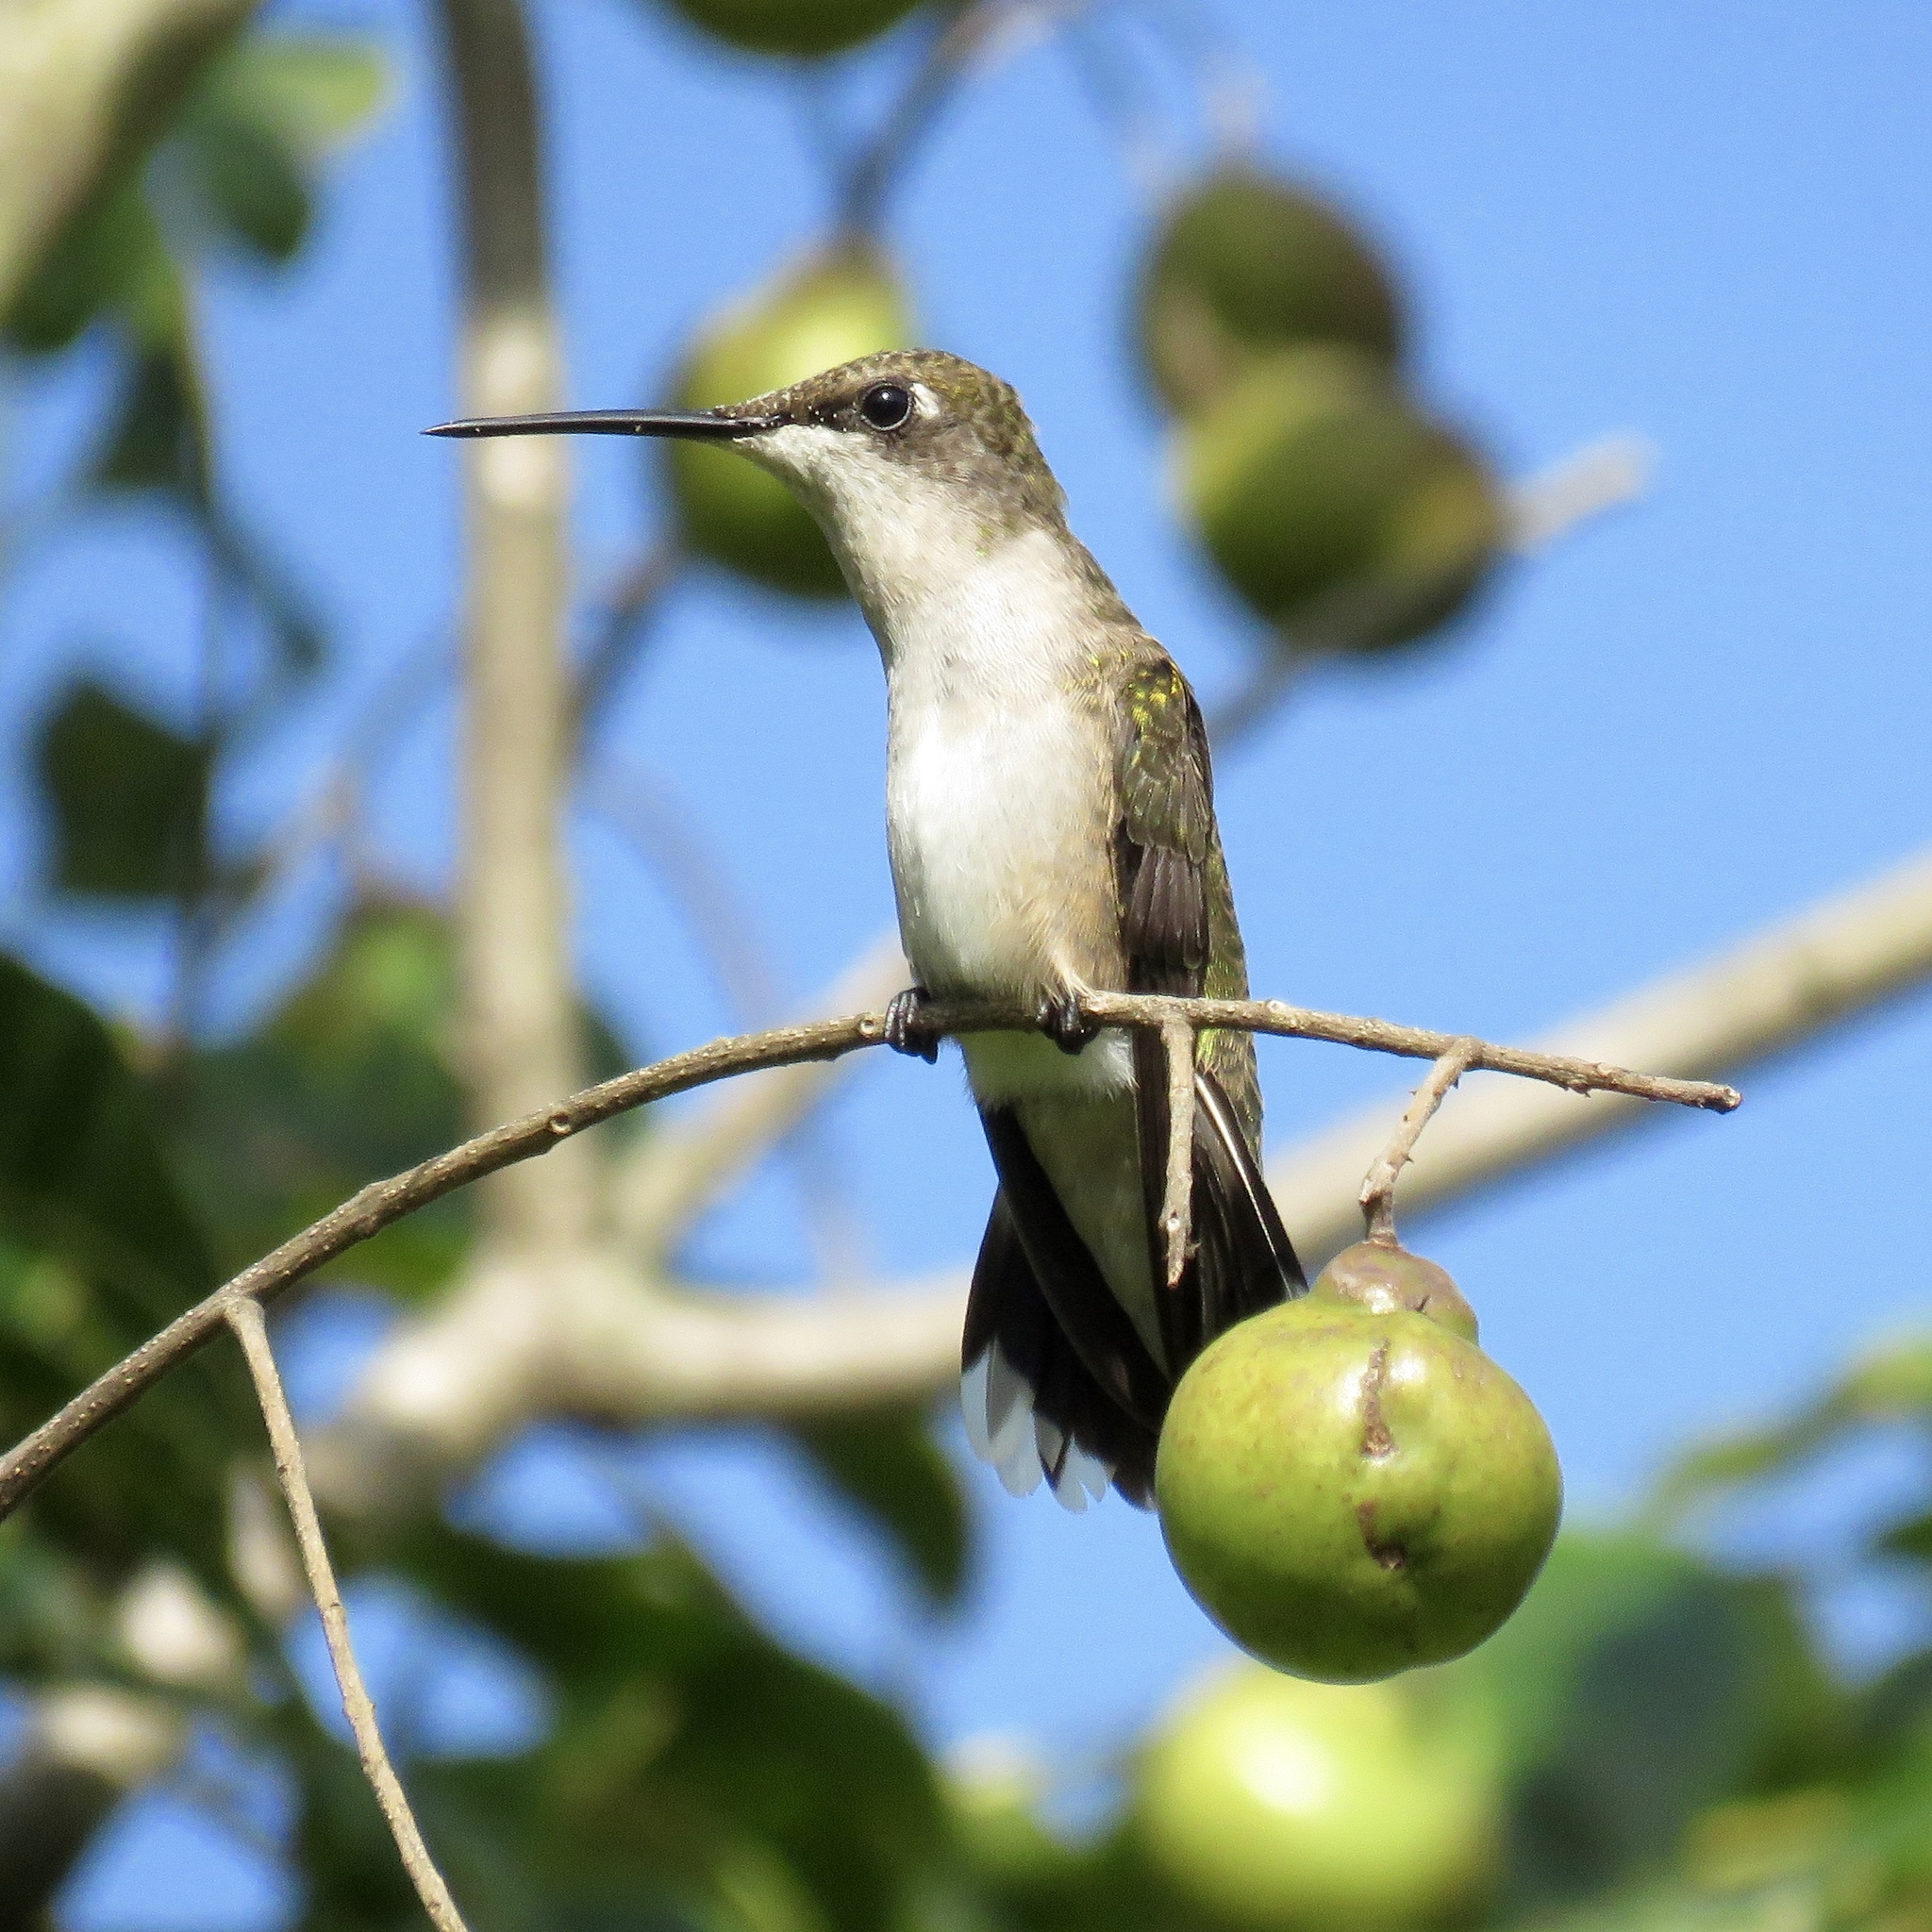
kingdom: Animalia
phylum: Chordata
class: Aves
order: Apodiformes
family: Trochilidae
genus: Archilochus
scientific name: Archilochus colubris
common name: Ruby-throated hummingbird
